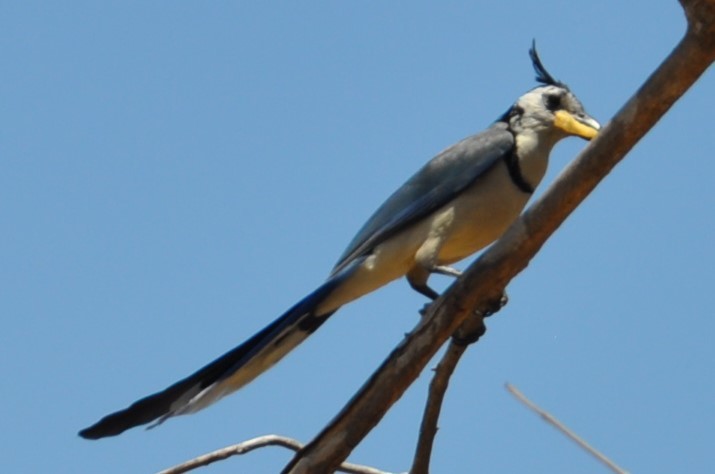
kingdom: Animalia
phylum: Chordata
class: Aves
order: Passeriformes
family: Corvidae
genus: Calocitta
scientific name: Calocitta formosa
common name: White-throated magpie-jay
